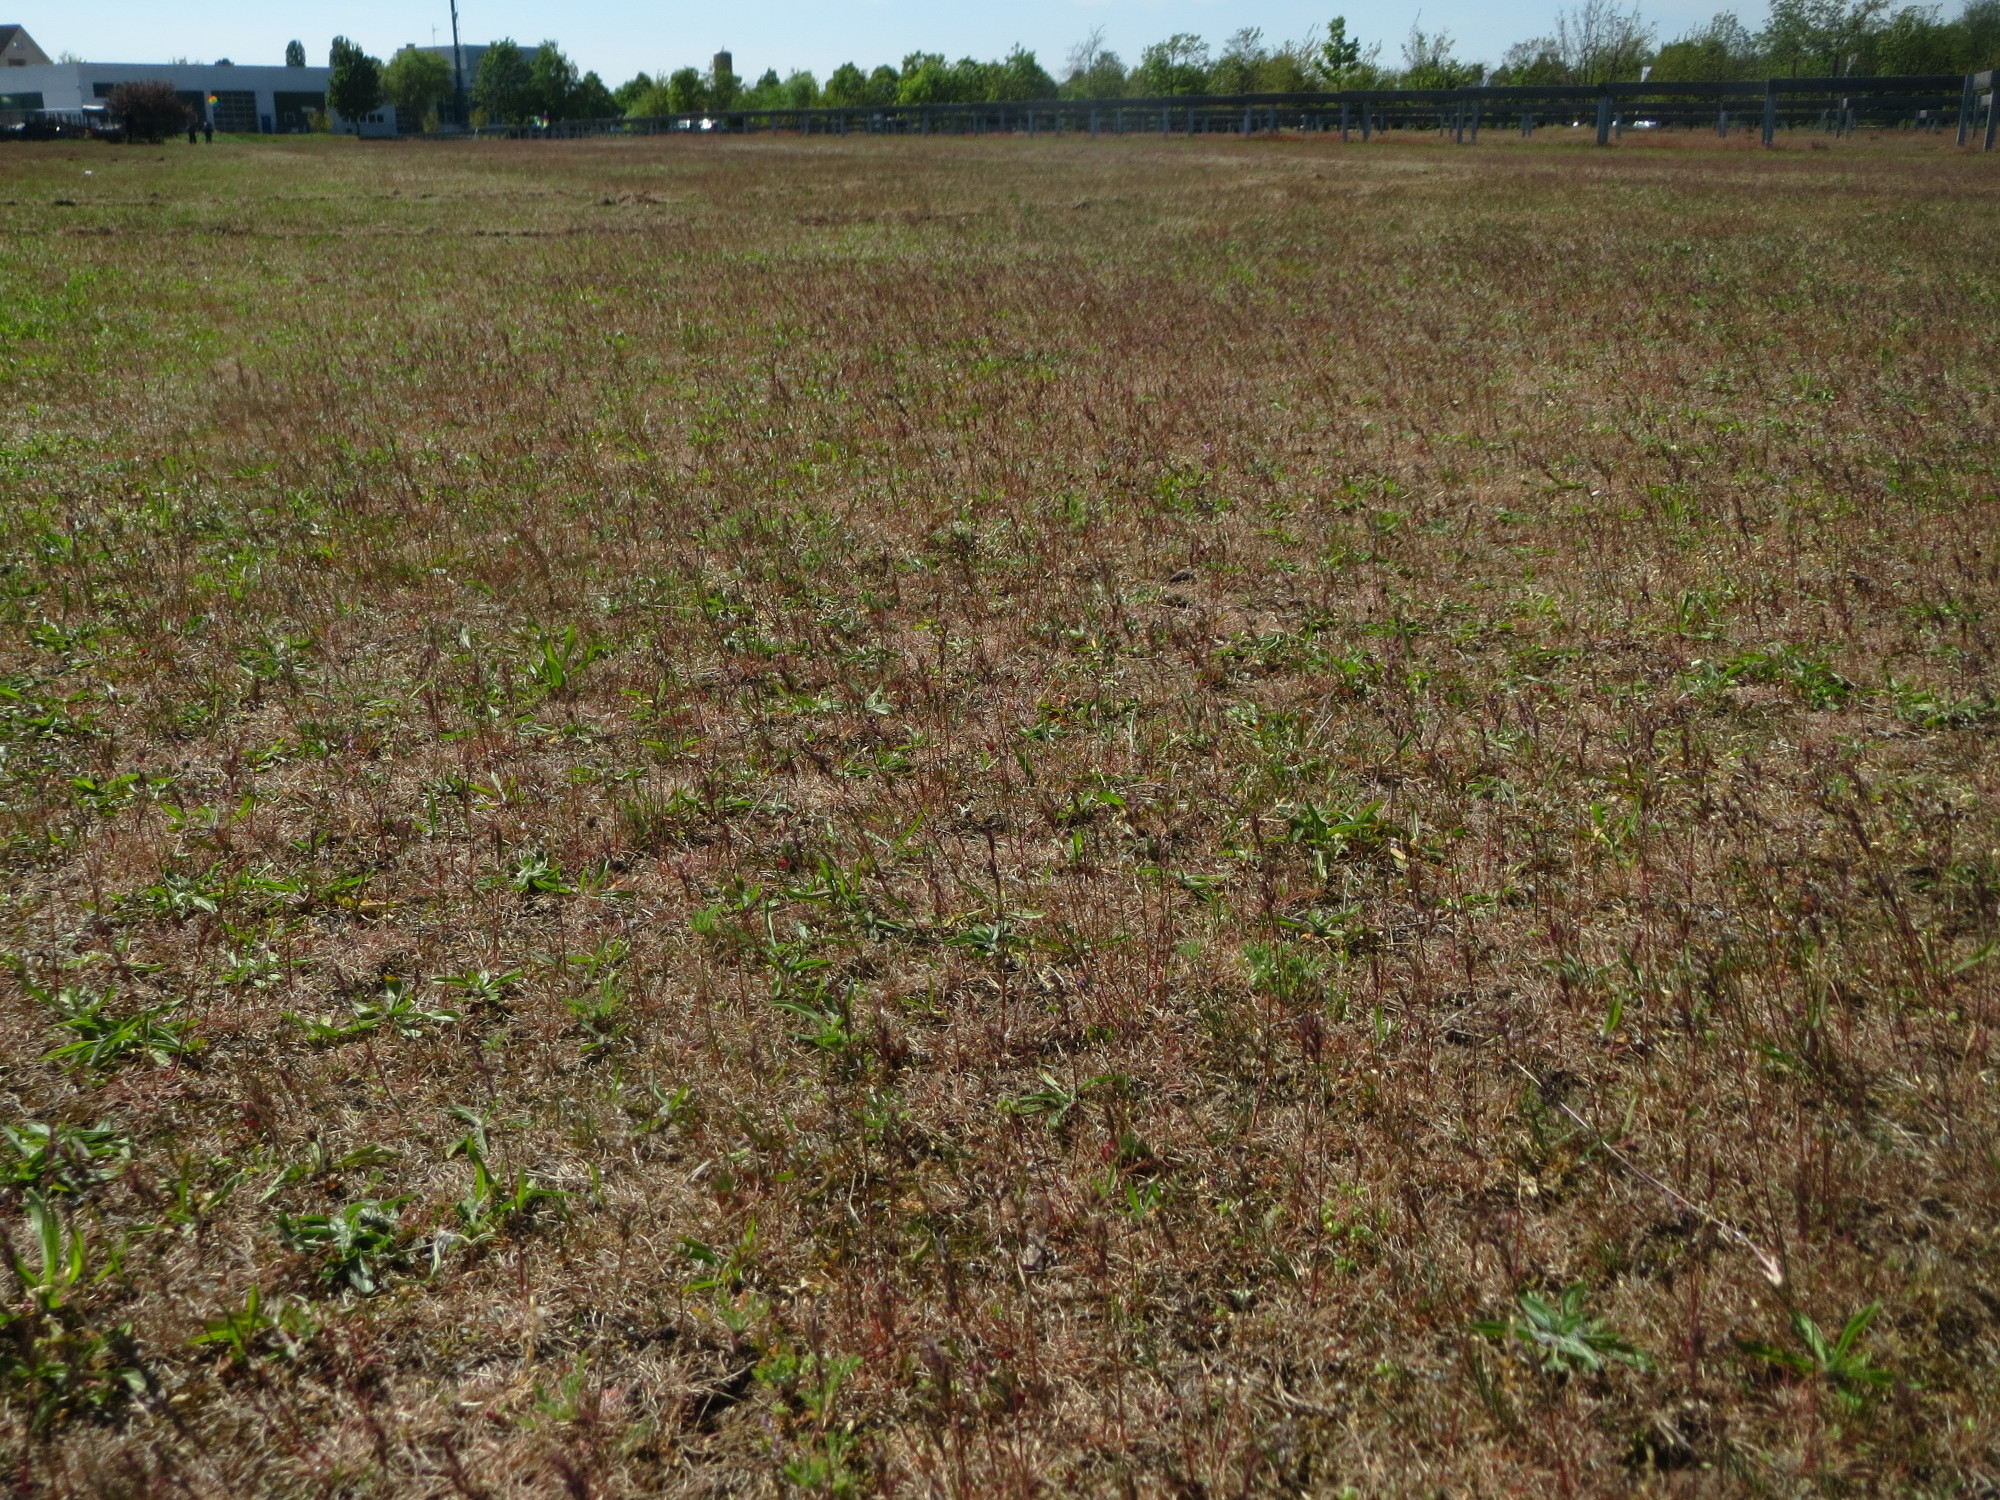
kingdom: Plantae
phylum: Tracheophyta
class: Liliopsida
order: Poales
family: Poaceae
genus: Poa
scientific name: Poa bulbosa
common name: Bulbous bluegrass
